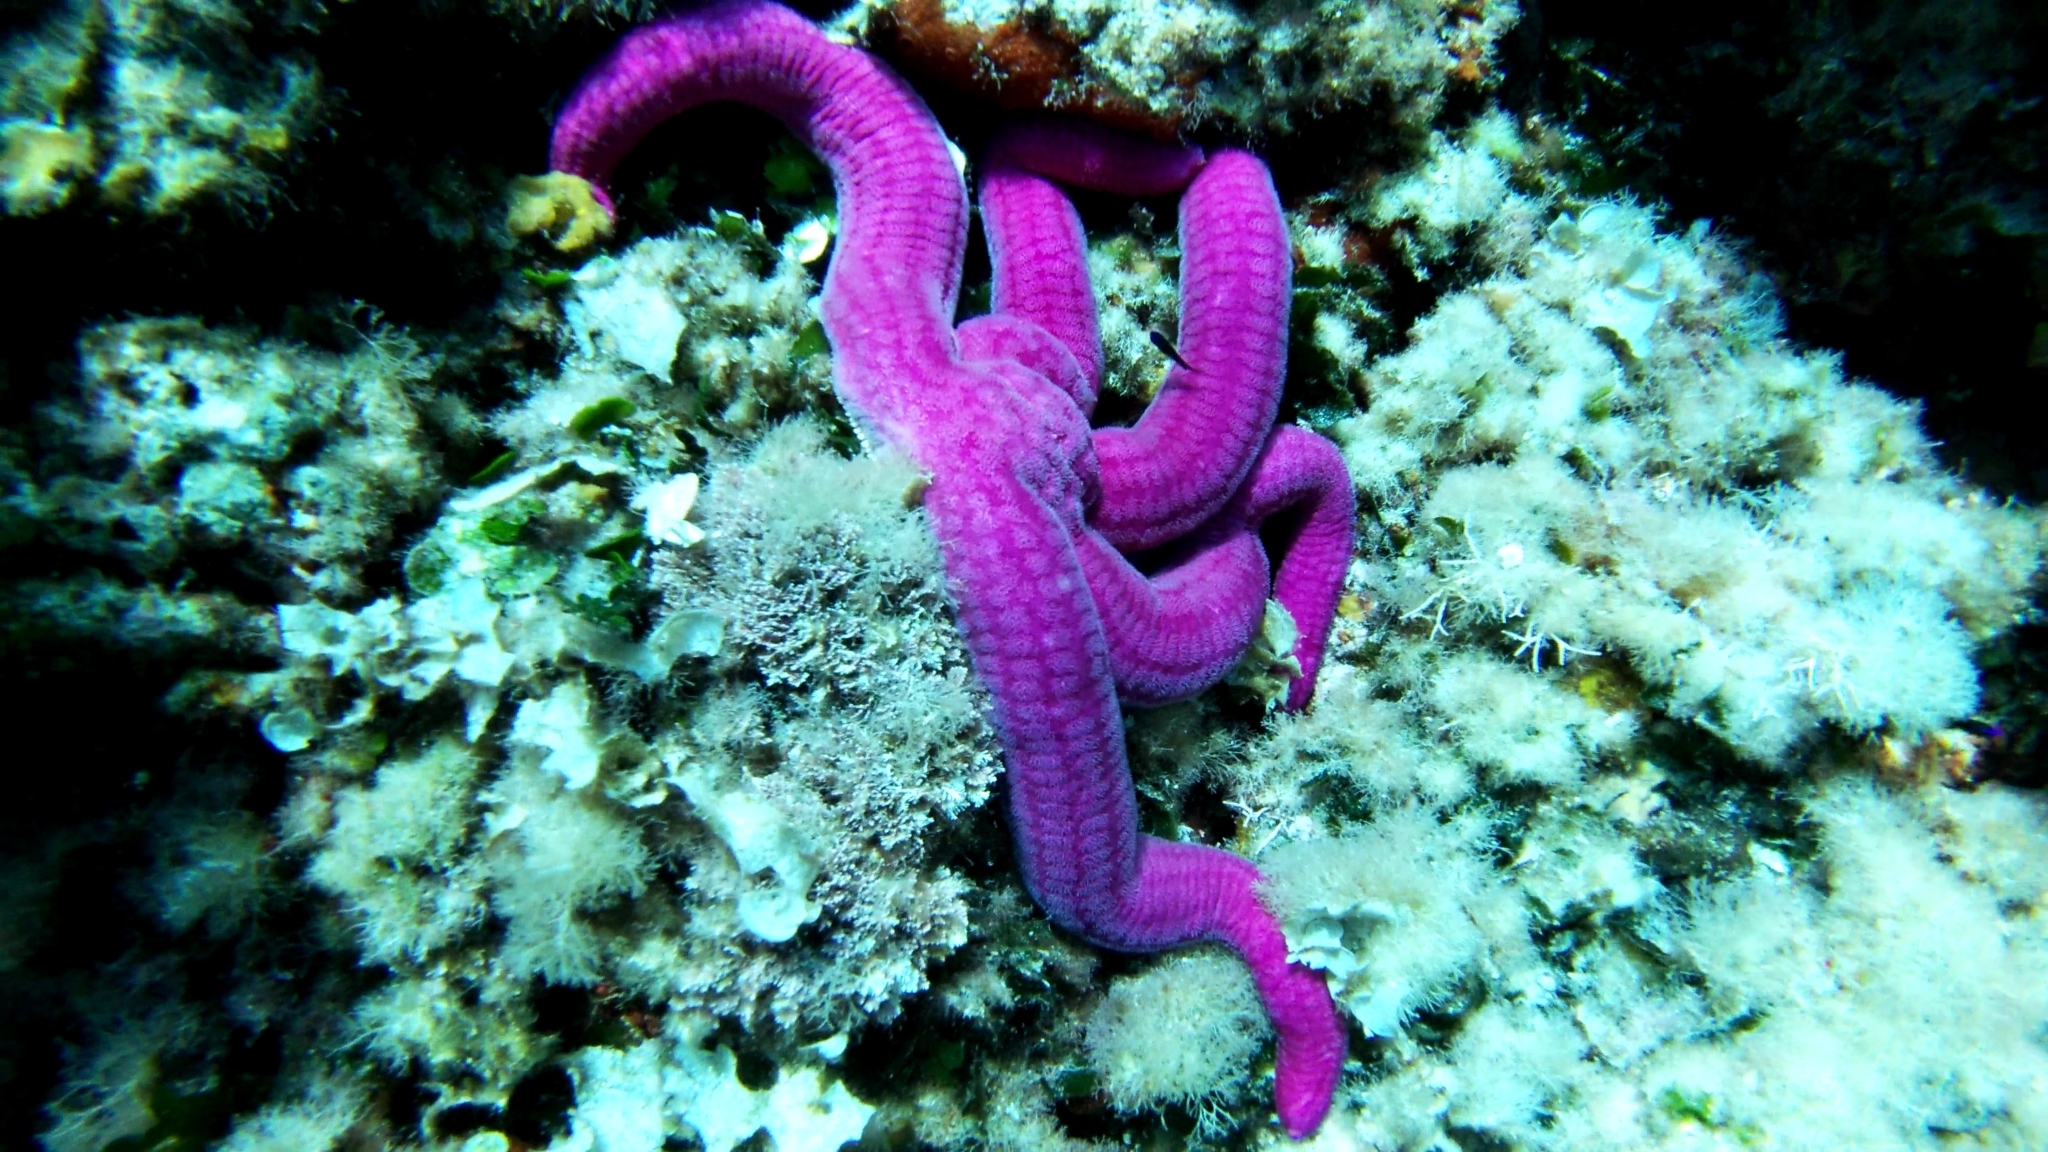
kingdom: Animalia
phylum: Echinodermata
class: Asteroidea
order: Valvatida
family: Ophidiasteridae
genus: Ophidiaster
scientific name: Ophidiaster ophidianus
